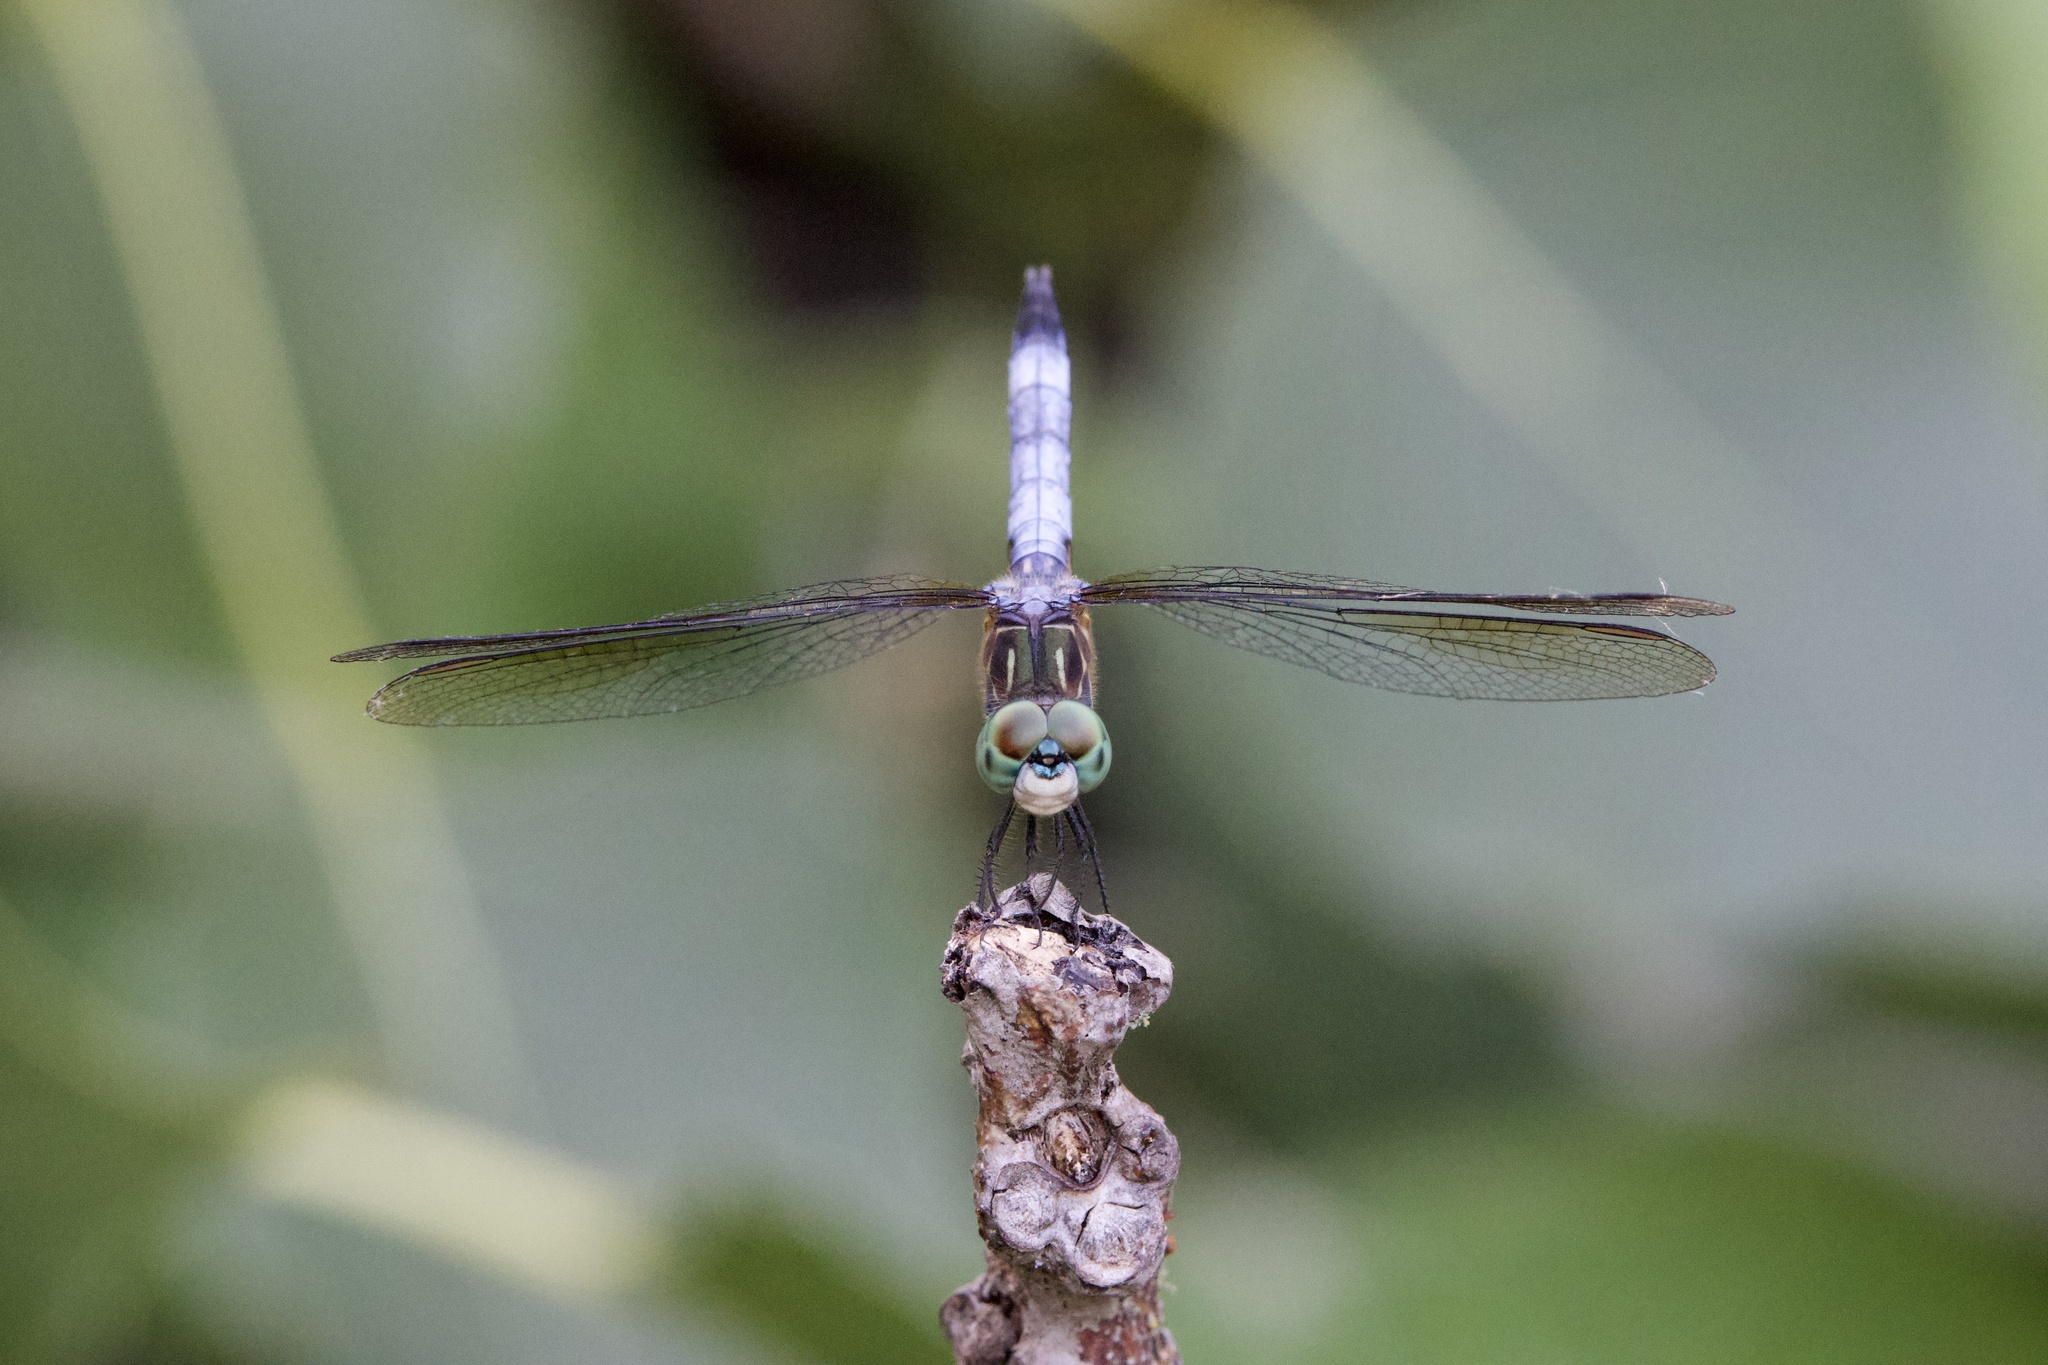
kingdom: Animalia
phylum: Arthropoda
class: Insecta
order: Odonata
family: Libellulidae
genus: Pachydiplax
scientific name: Pachydiplax longipennis
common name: Blue dasher
